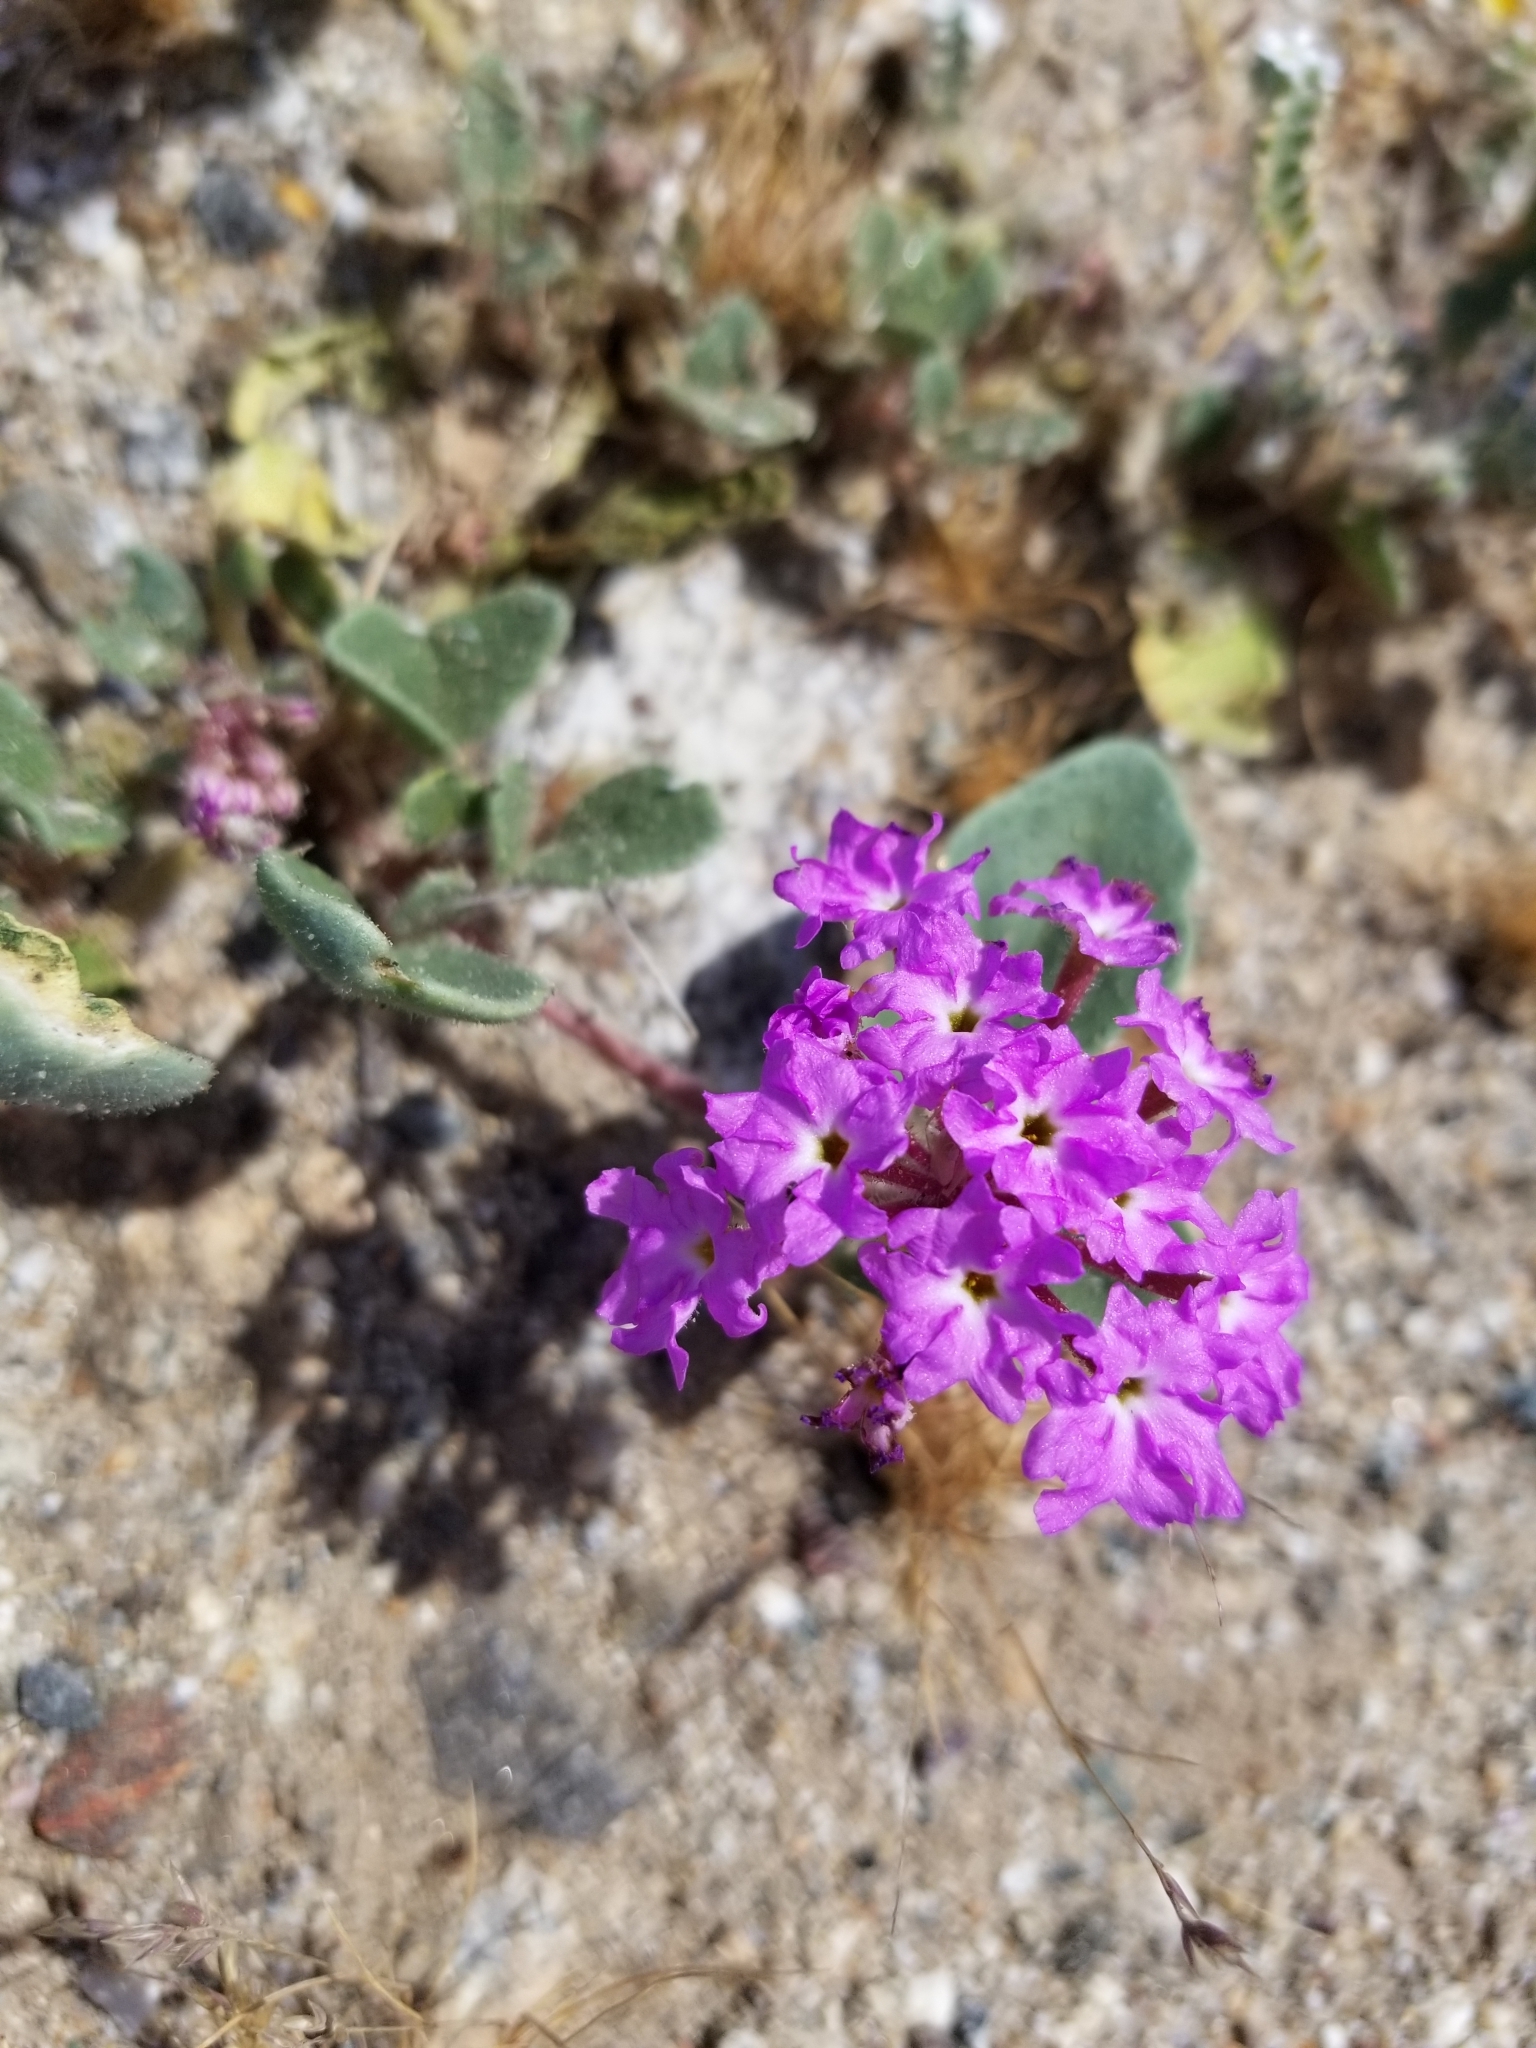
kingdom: Plantae
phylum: Tracheophyta
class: Magnoliopsida
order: Caryophyllales
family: Nyctaginaceae
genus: Abronia
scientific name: Abronia villosa
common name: Desert sand-verbena
